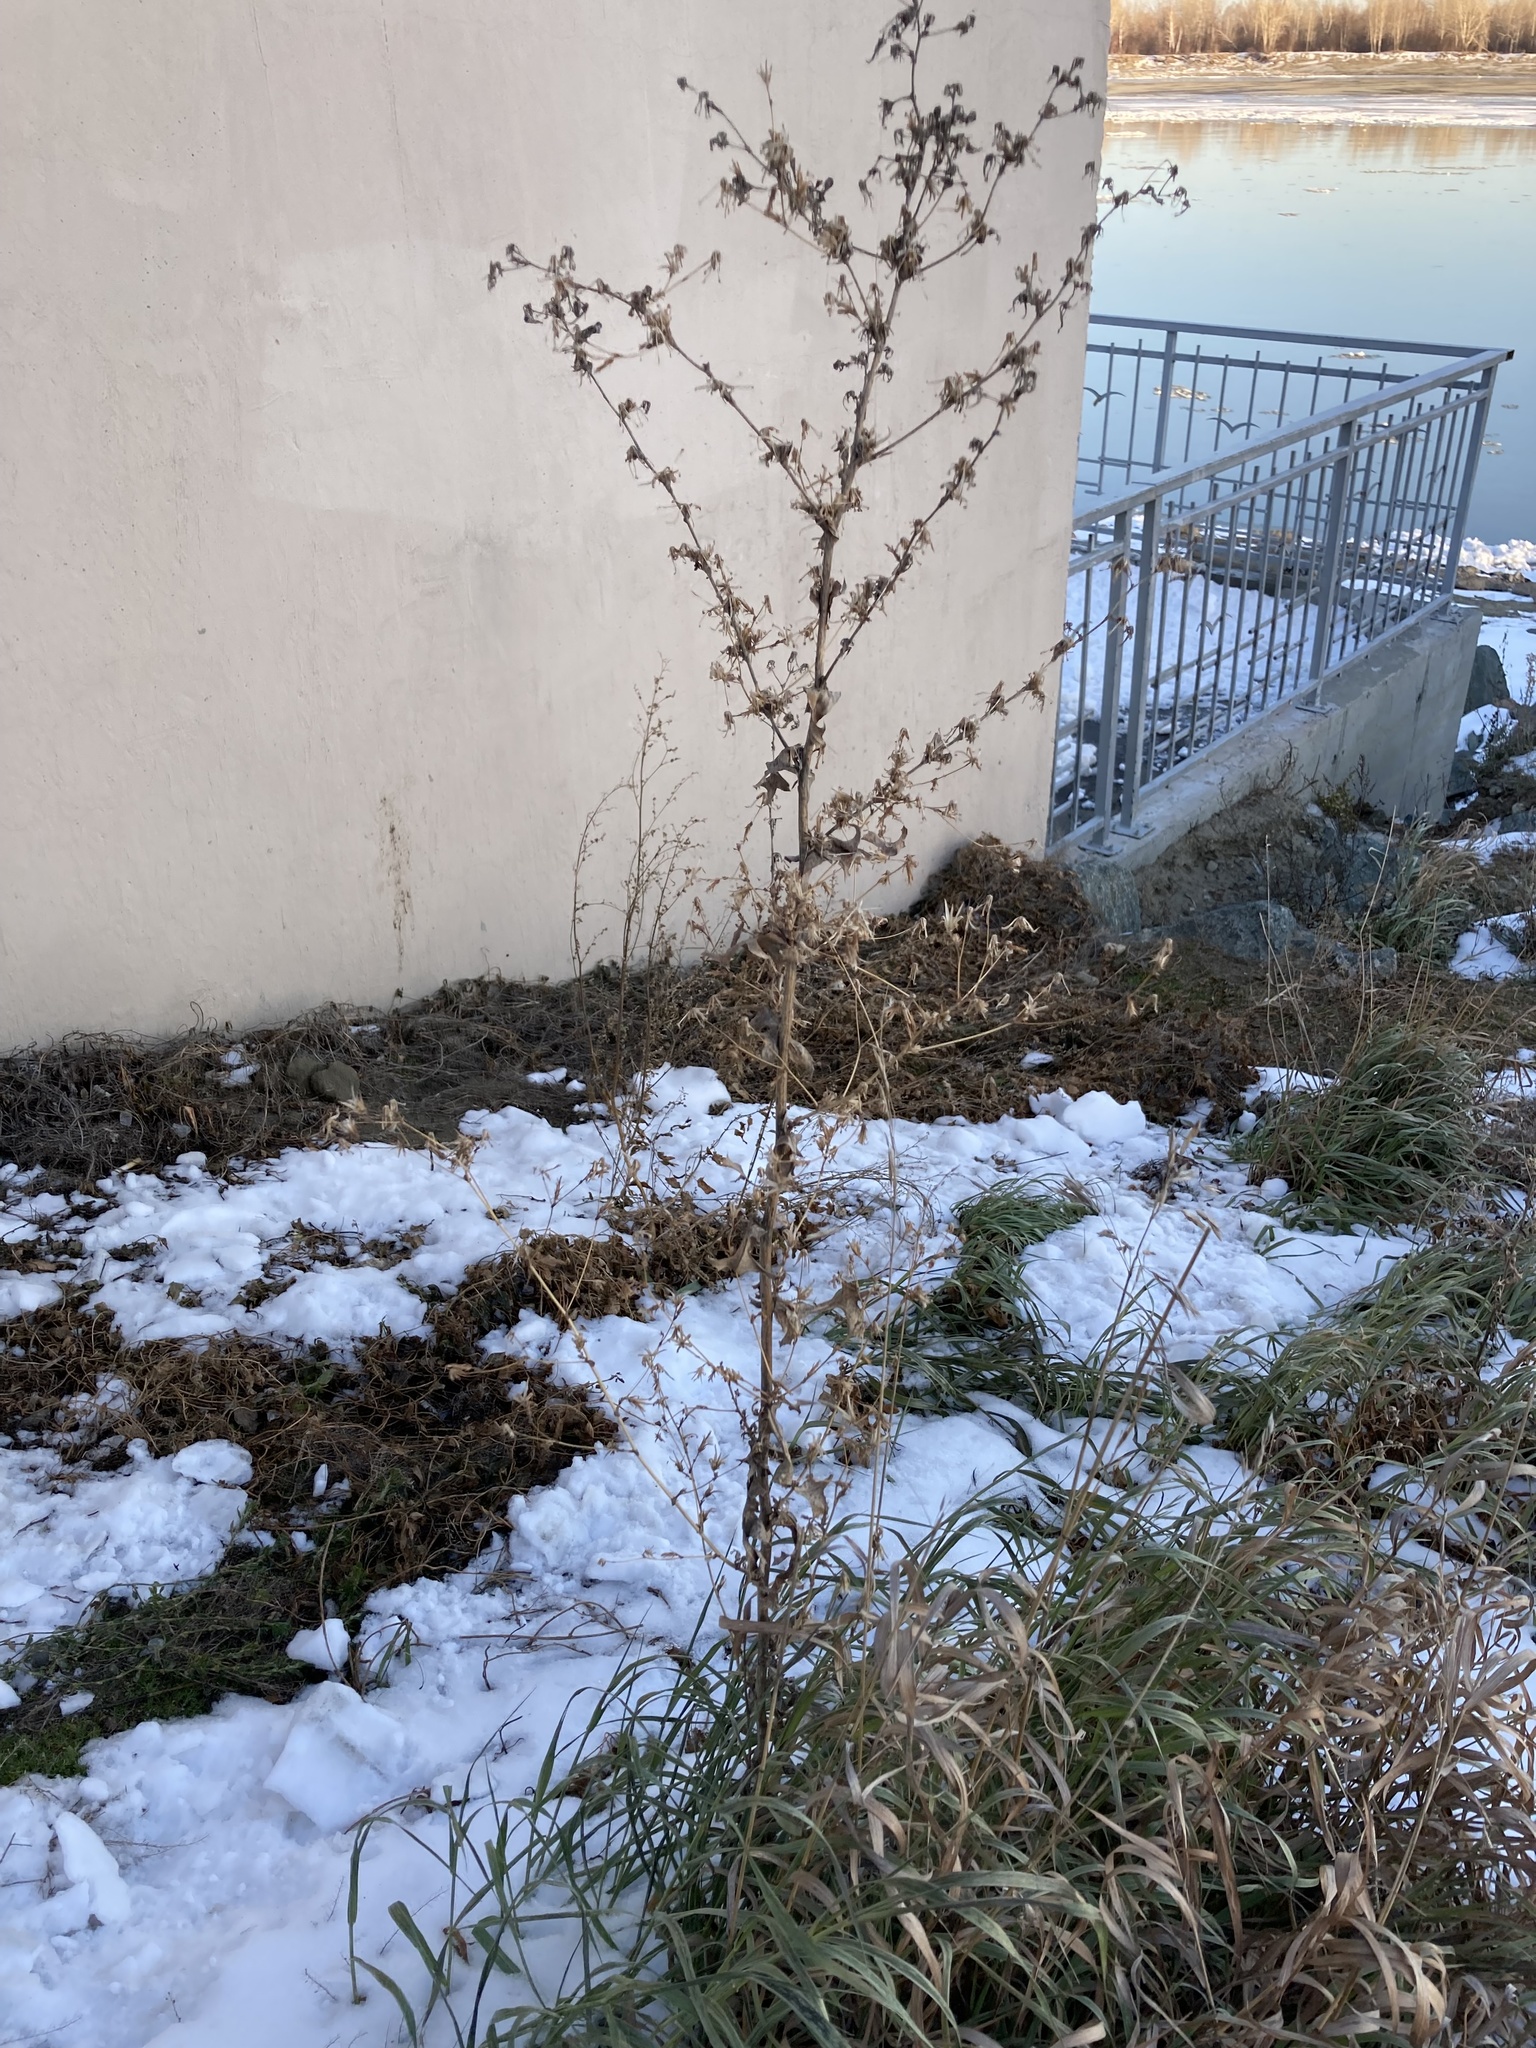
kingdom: Plantae
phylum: Tracheophyta
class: Magnoliopsida
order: Asterales
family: Asteraceae
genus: Lactuca
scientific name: Lactuca serriola
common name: Prickly lettuce
